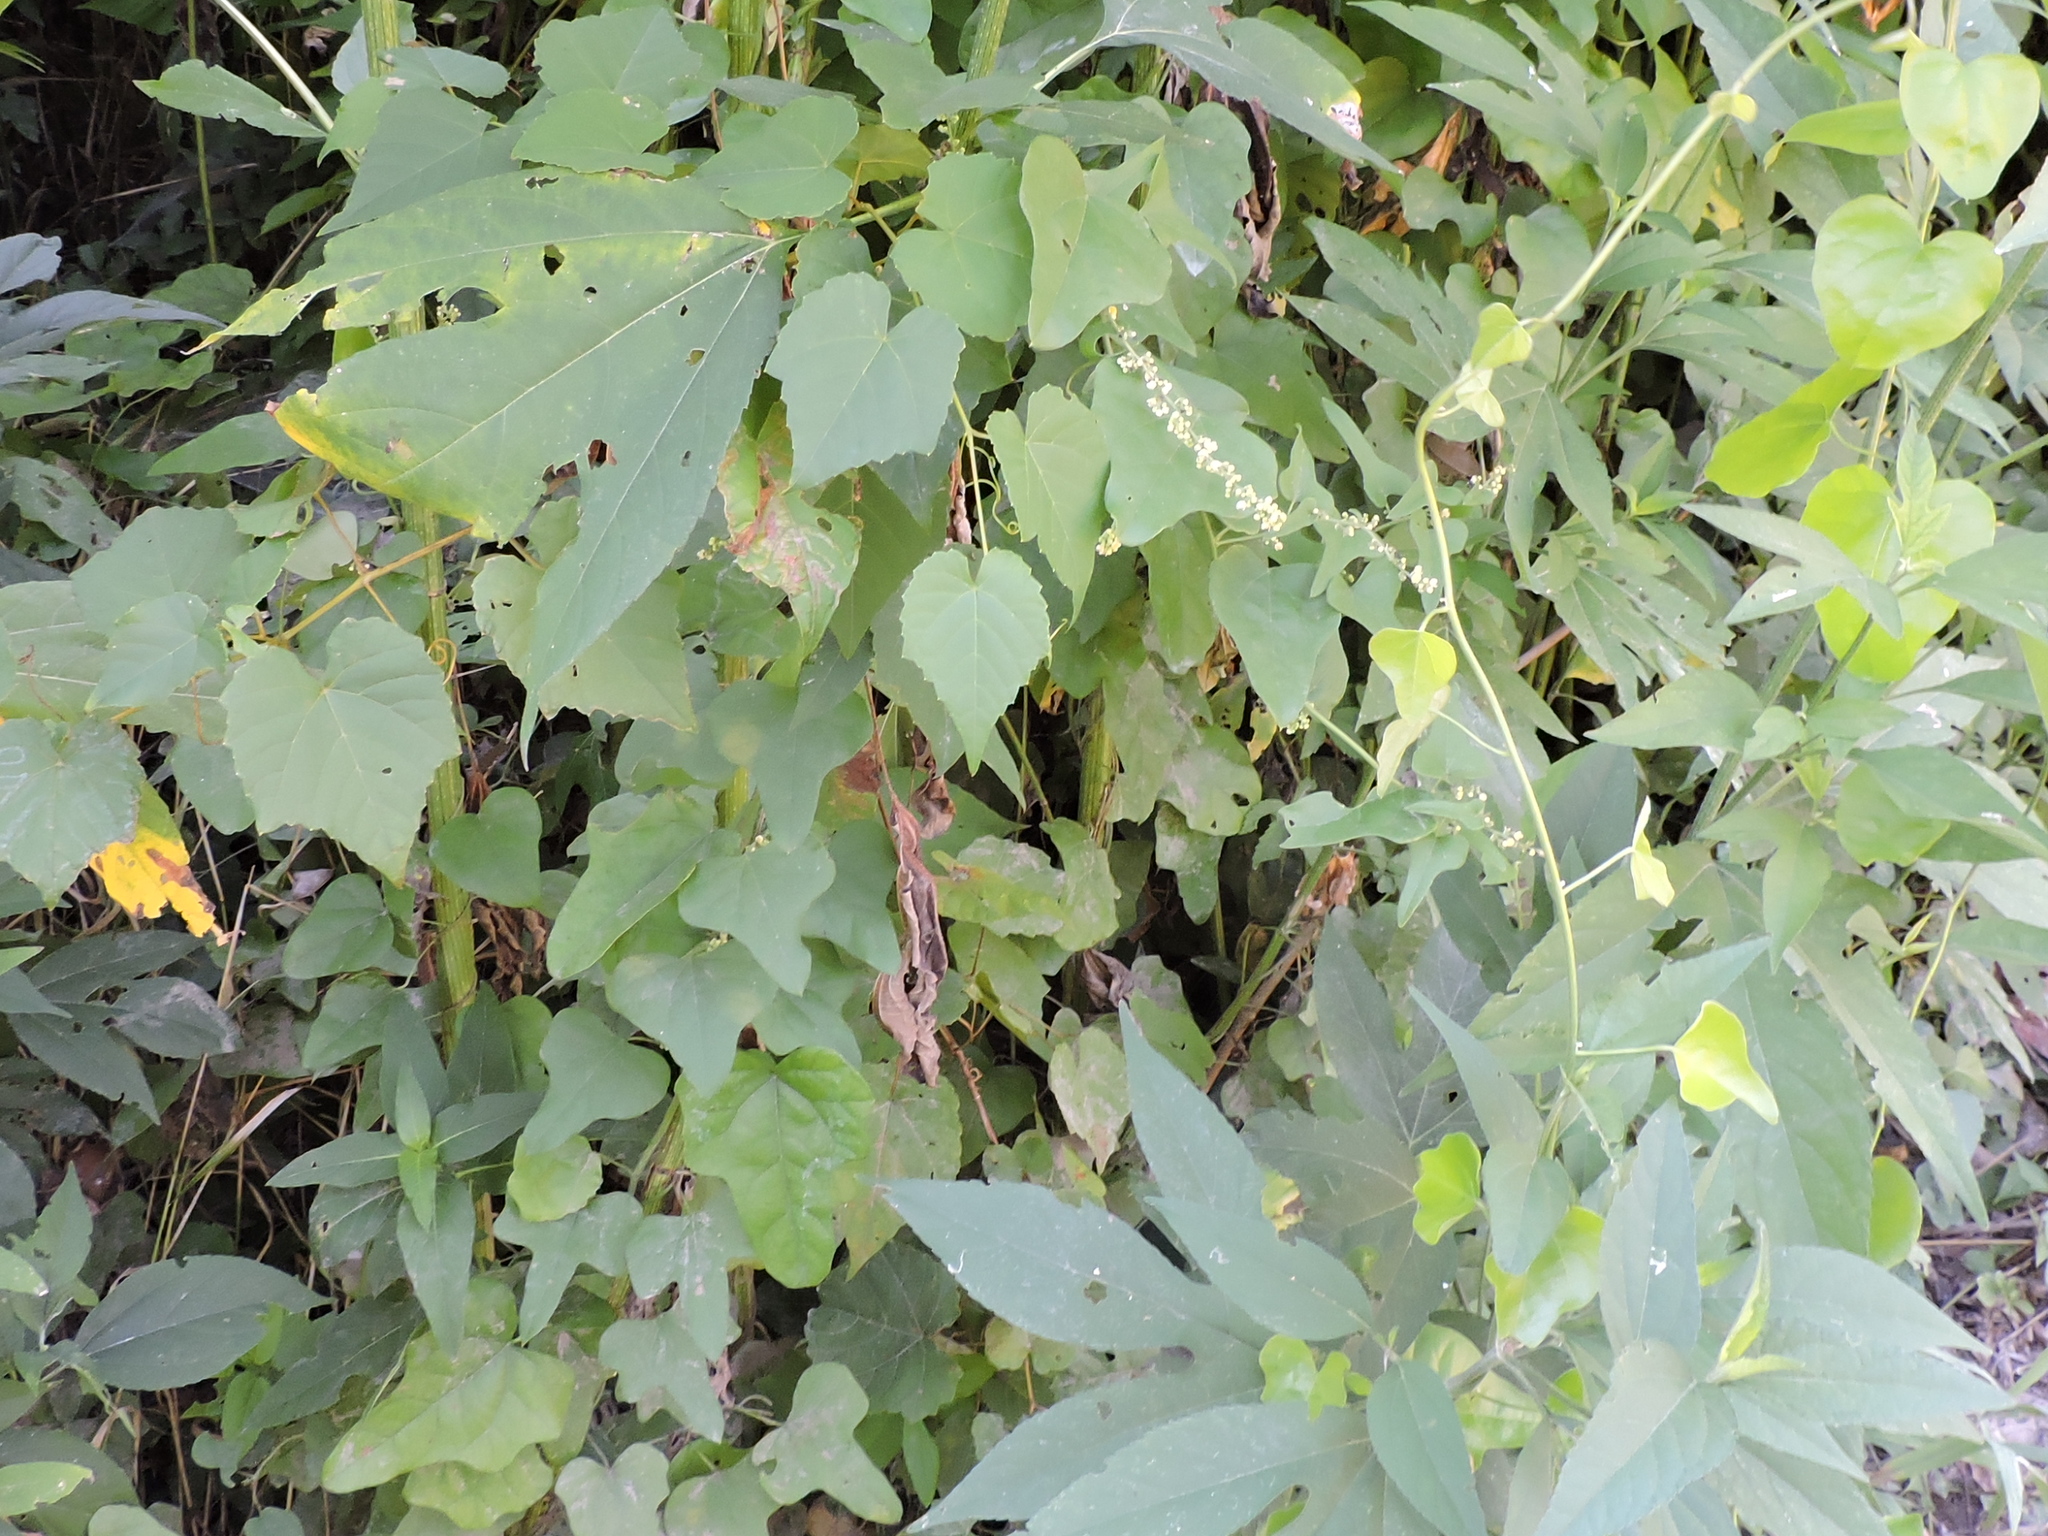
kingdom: Plantae
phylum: Tracheophyta
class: Magnoliopsida
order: Ranunculales
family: Menispermaceae
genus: Cocculus
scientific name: Cocculus carolinus
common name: Carolina moonseed
